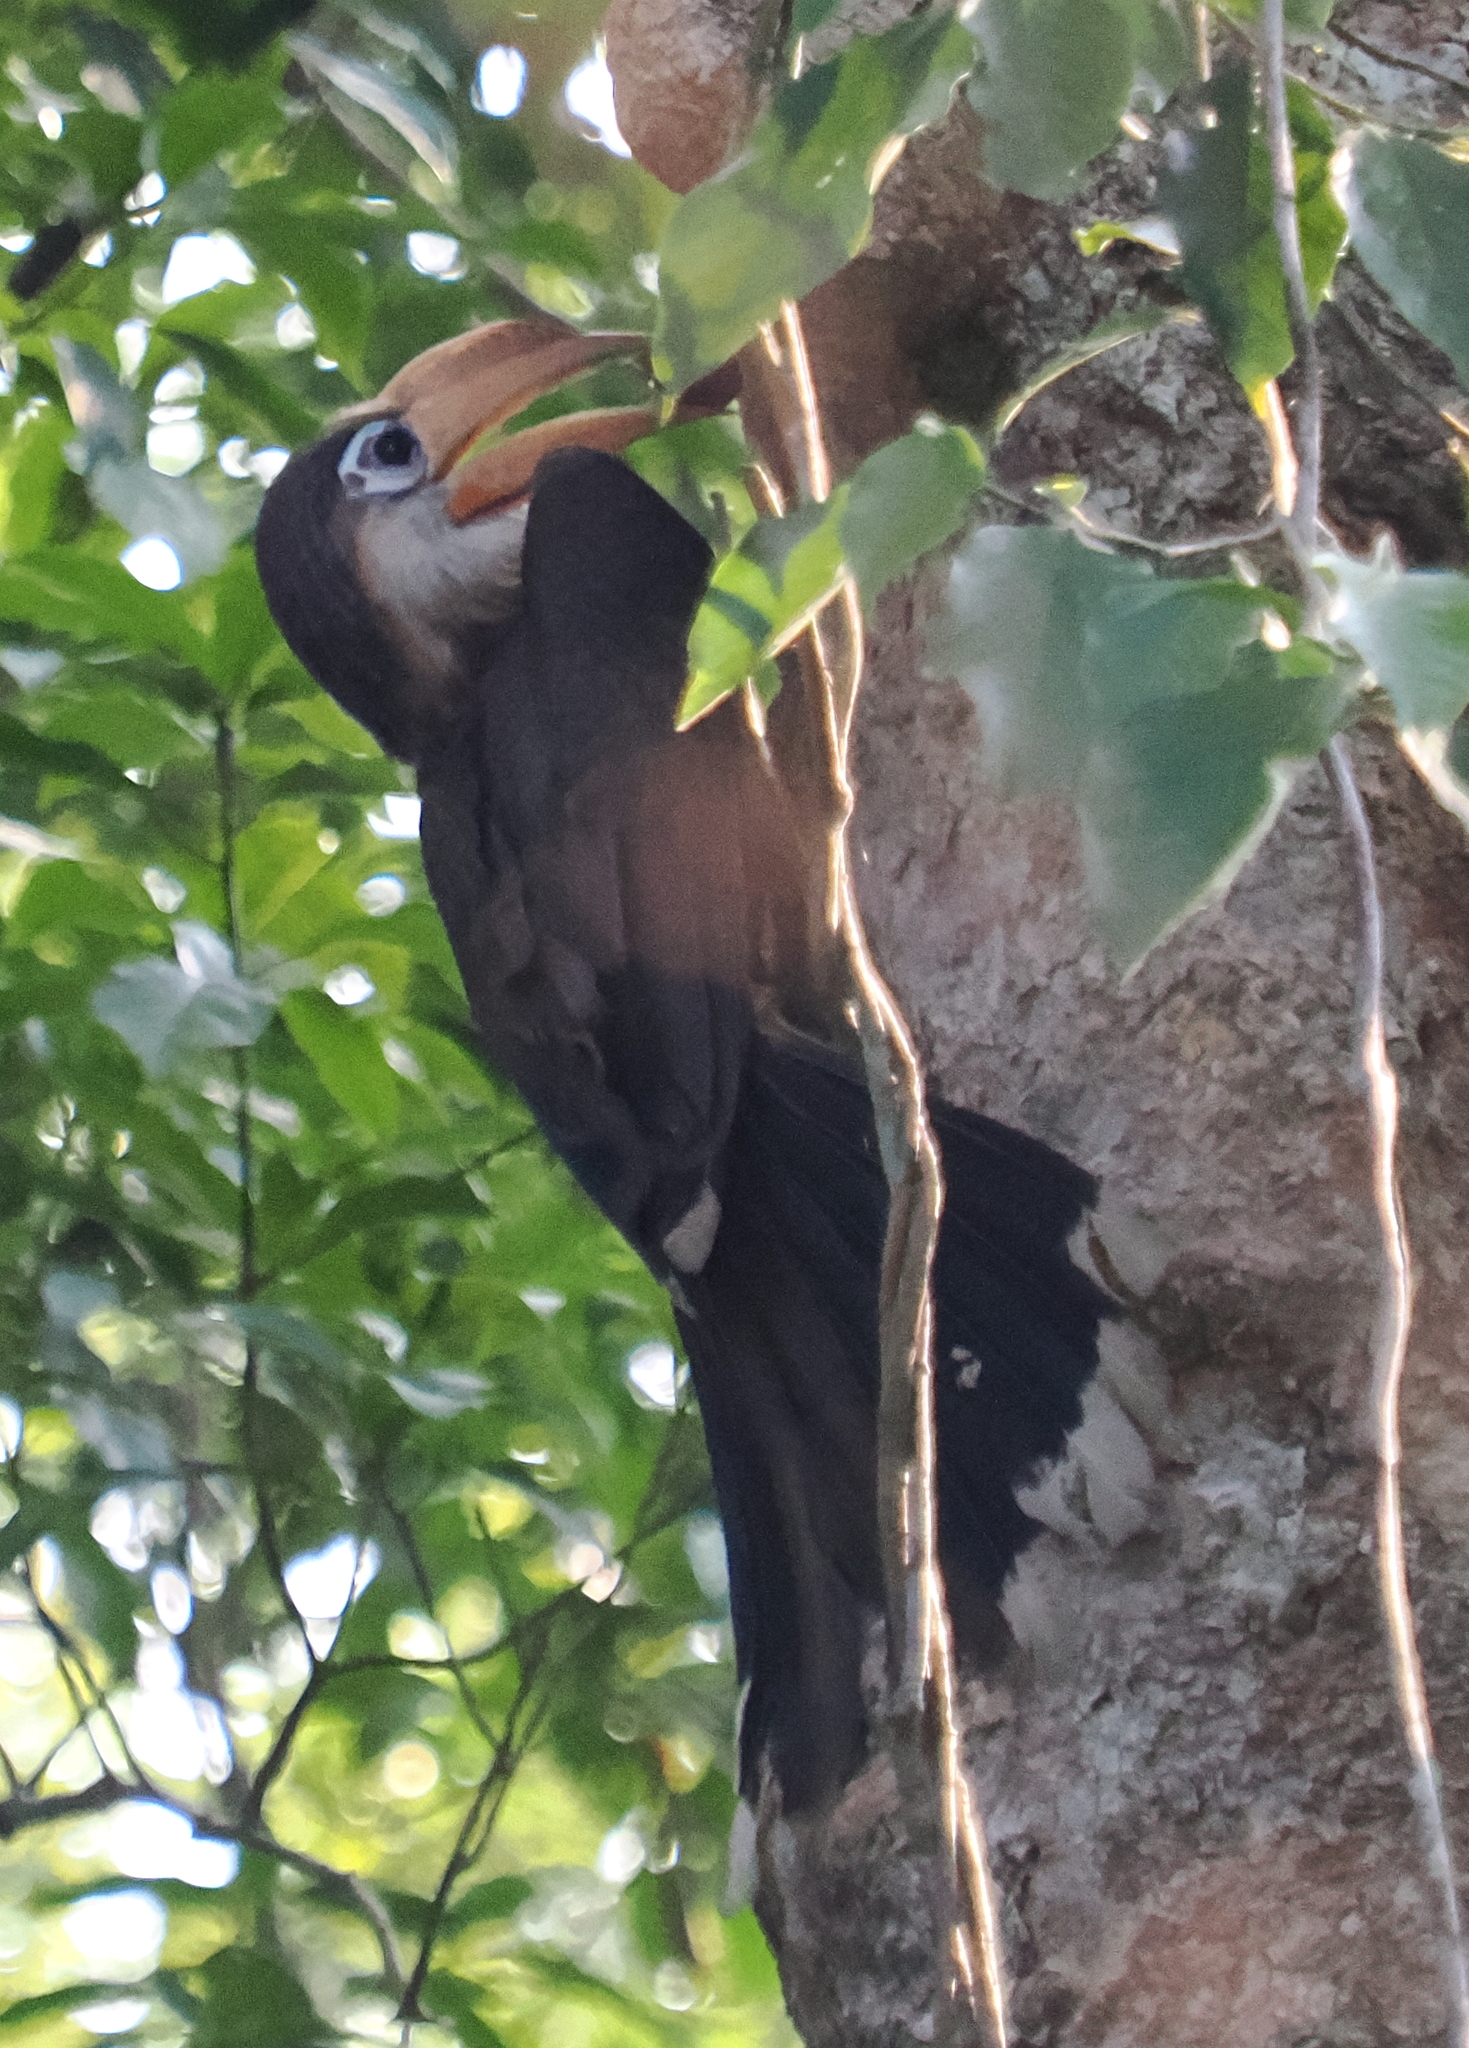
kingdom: Animalia
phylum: Chordata
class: Aves
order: Bucerotiformes
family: Bucerotidae
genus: Anorrhinus
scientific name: Anorrhinus austeni
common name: Austen's brown hornbill
